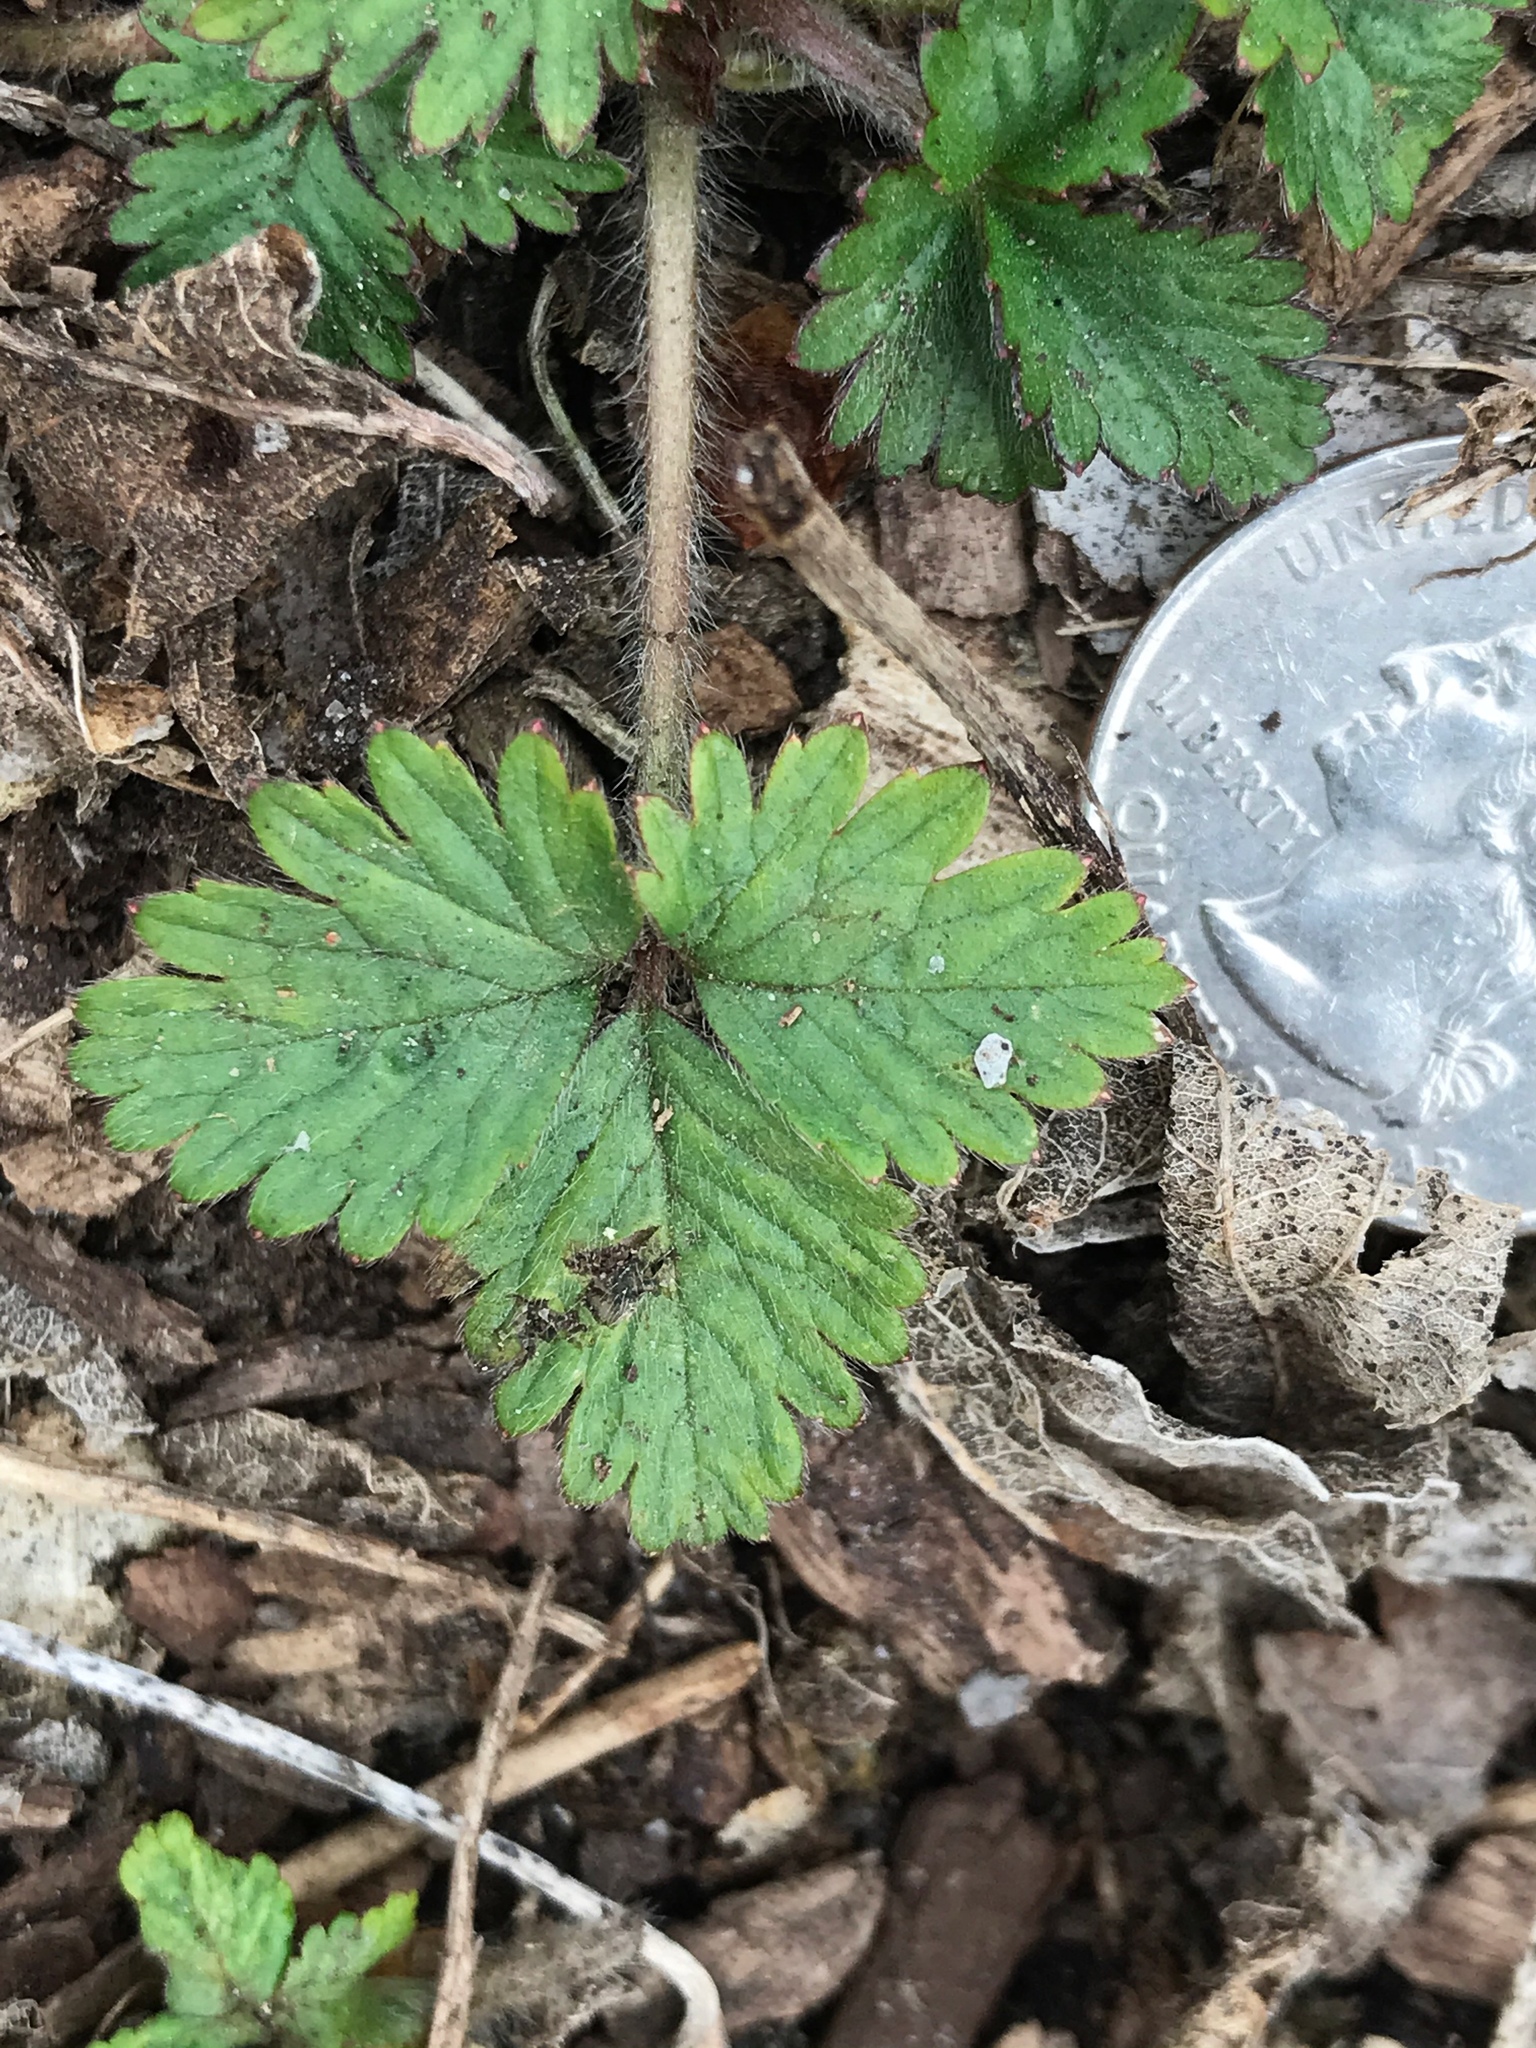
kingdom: Plantae
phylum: Tracheophyta
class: Magnoliopsida
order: Rosales
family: Rosaceae
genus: Potentilla
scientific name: Potentilla indica
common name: Yellow-flowered strawberry
